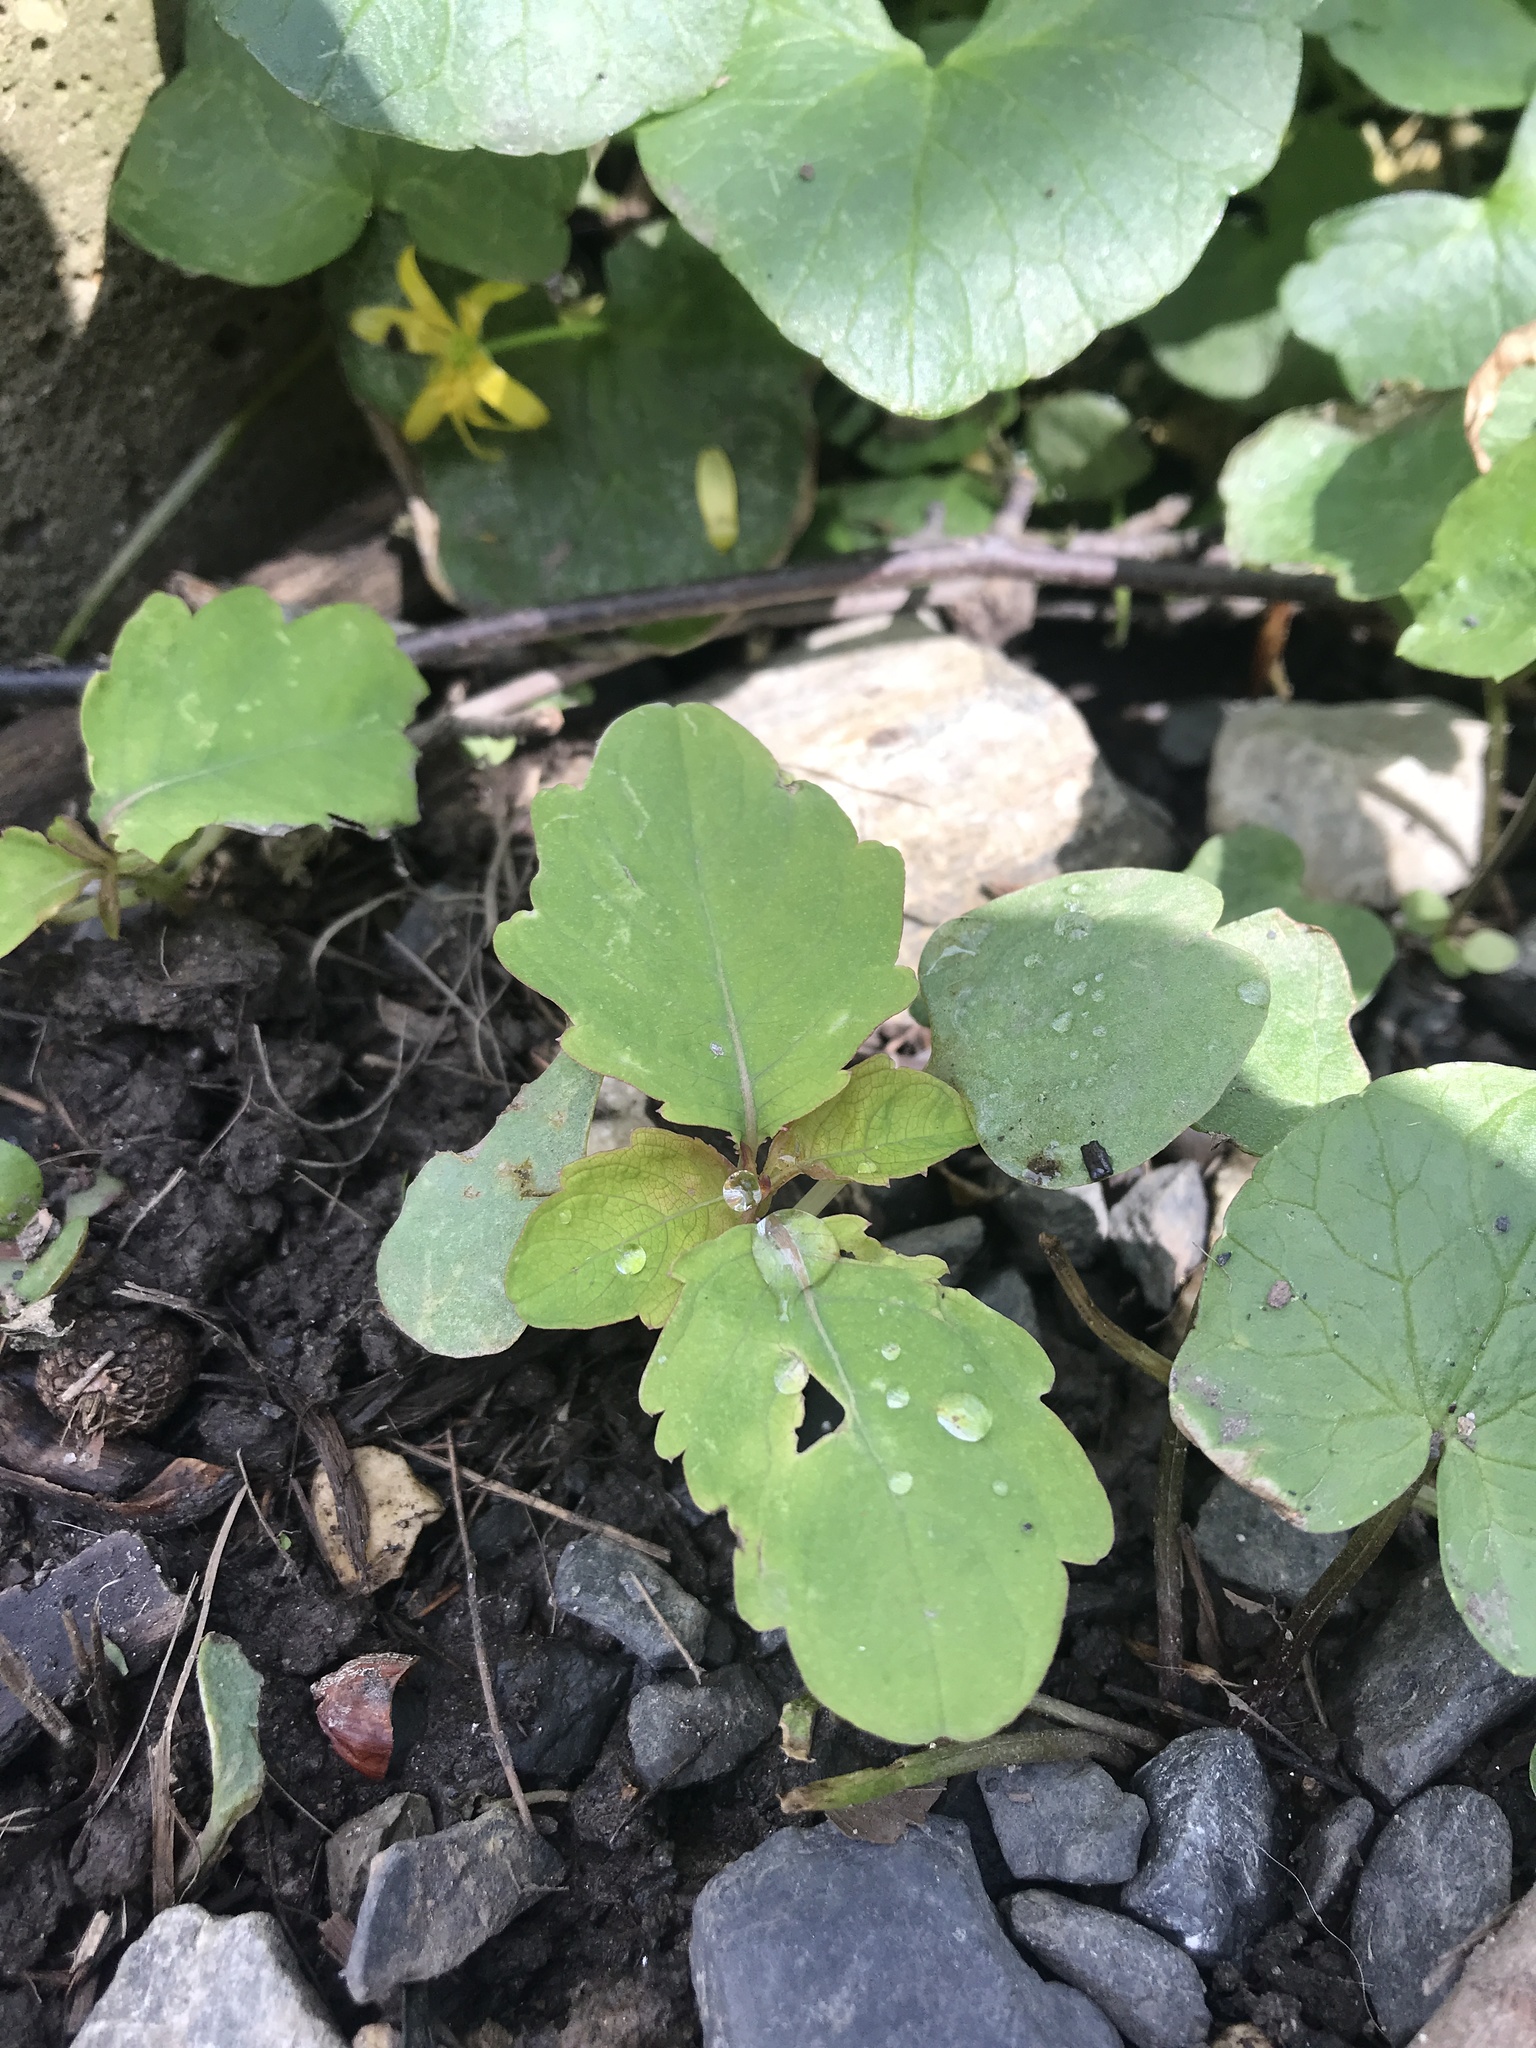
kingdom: Plantae
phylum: Tracheophyta
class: Magnoliopsida
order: Ericales
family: Balsaminaceae
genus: Impatiens
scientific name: Impatiens
